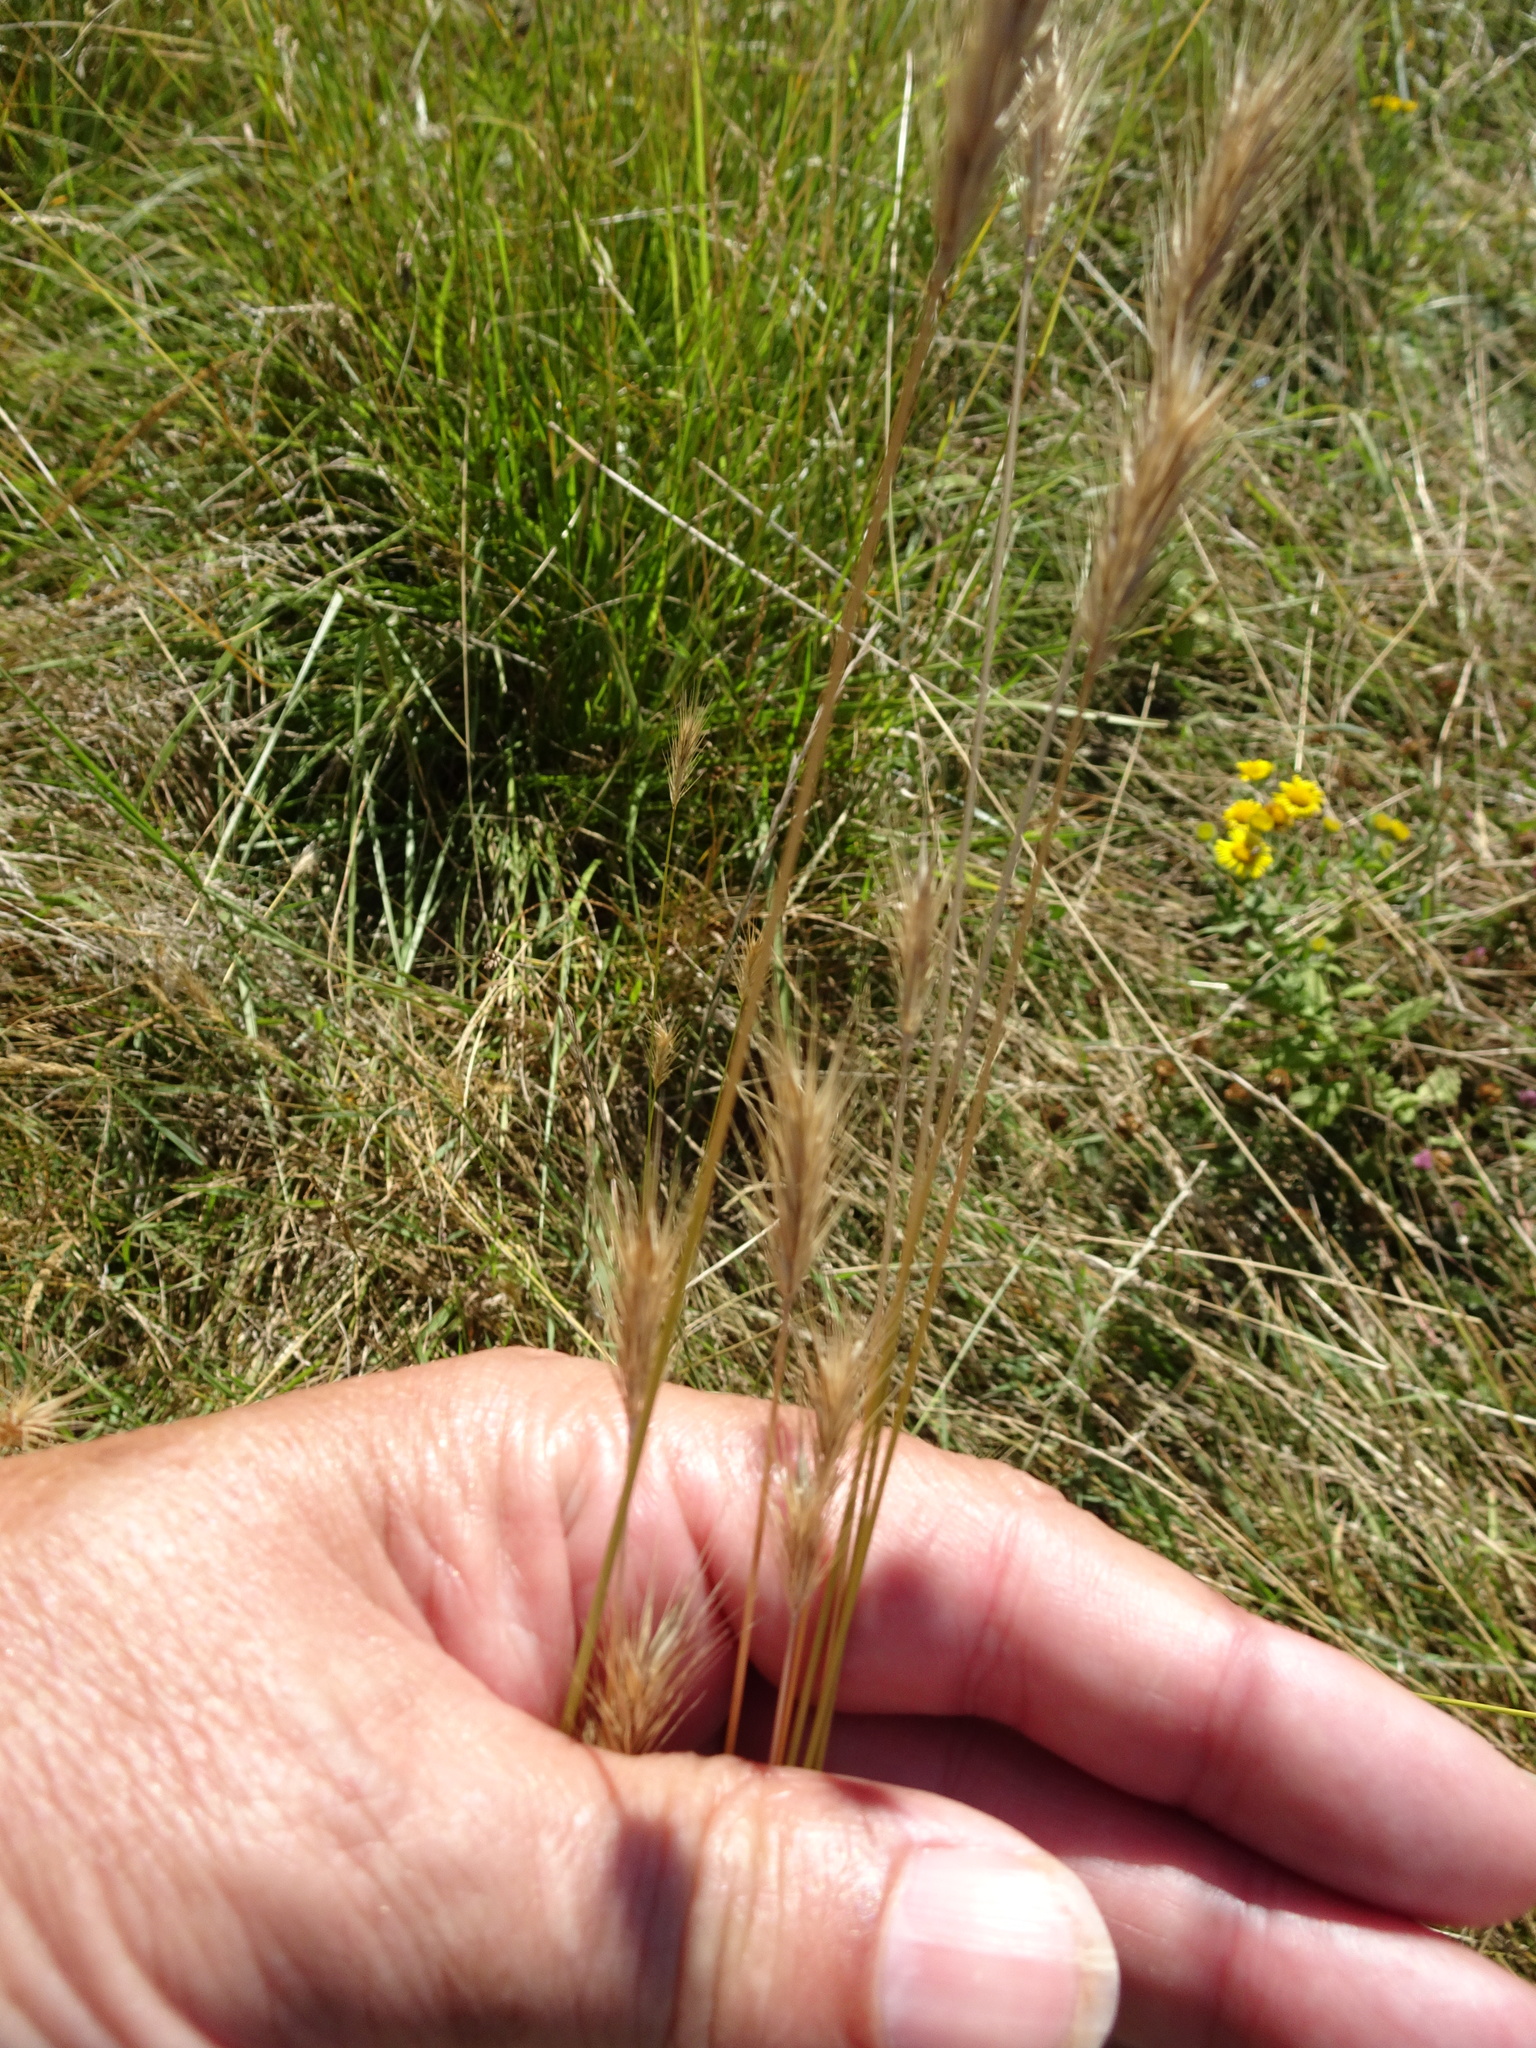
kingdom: Plantae
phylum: Tracheophyta
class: Liliopsida
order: Poales
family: Poaceae
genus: Hordeum
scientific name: Hordeum secalinum
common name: Meadow barley
